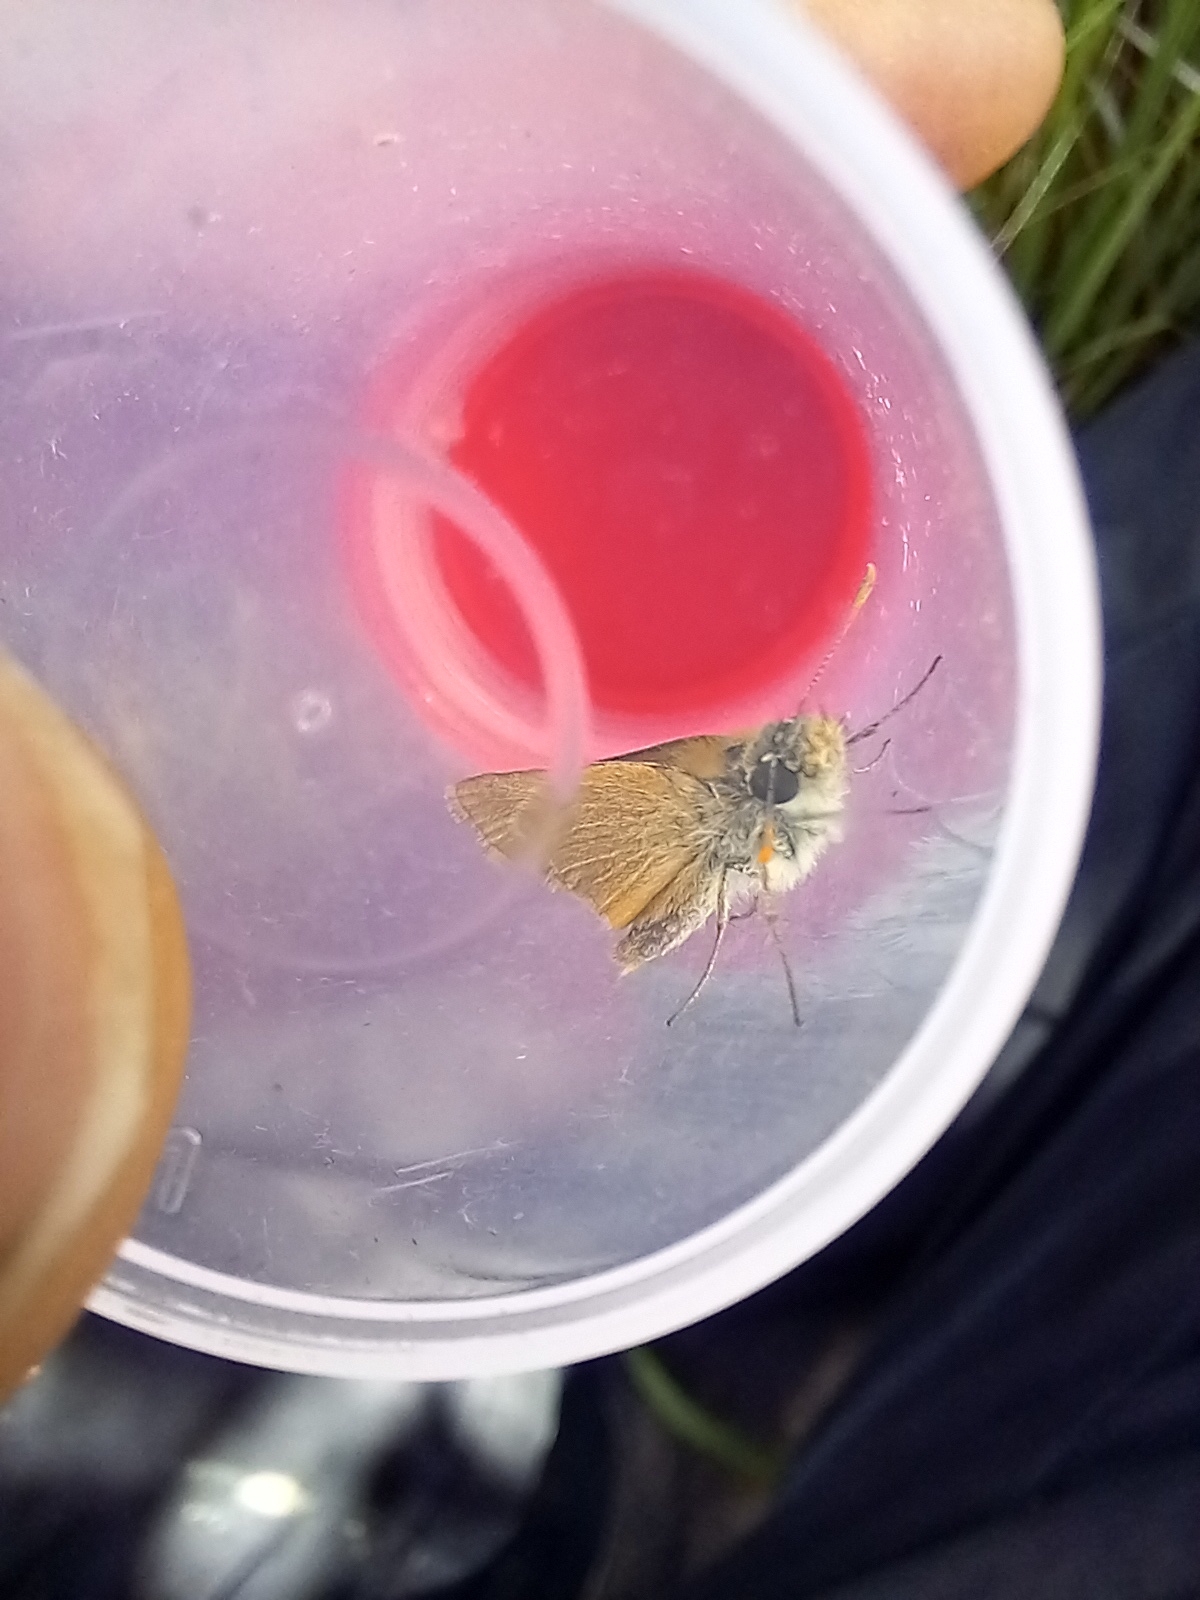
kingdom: Animalia
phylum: Arthropoda
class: Insecta
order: Lepidoptera
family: Hesperiidae
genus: Thymelicus
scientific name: Thymelicus acteon
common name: Lulworth skipper
